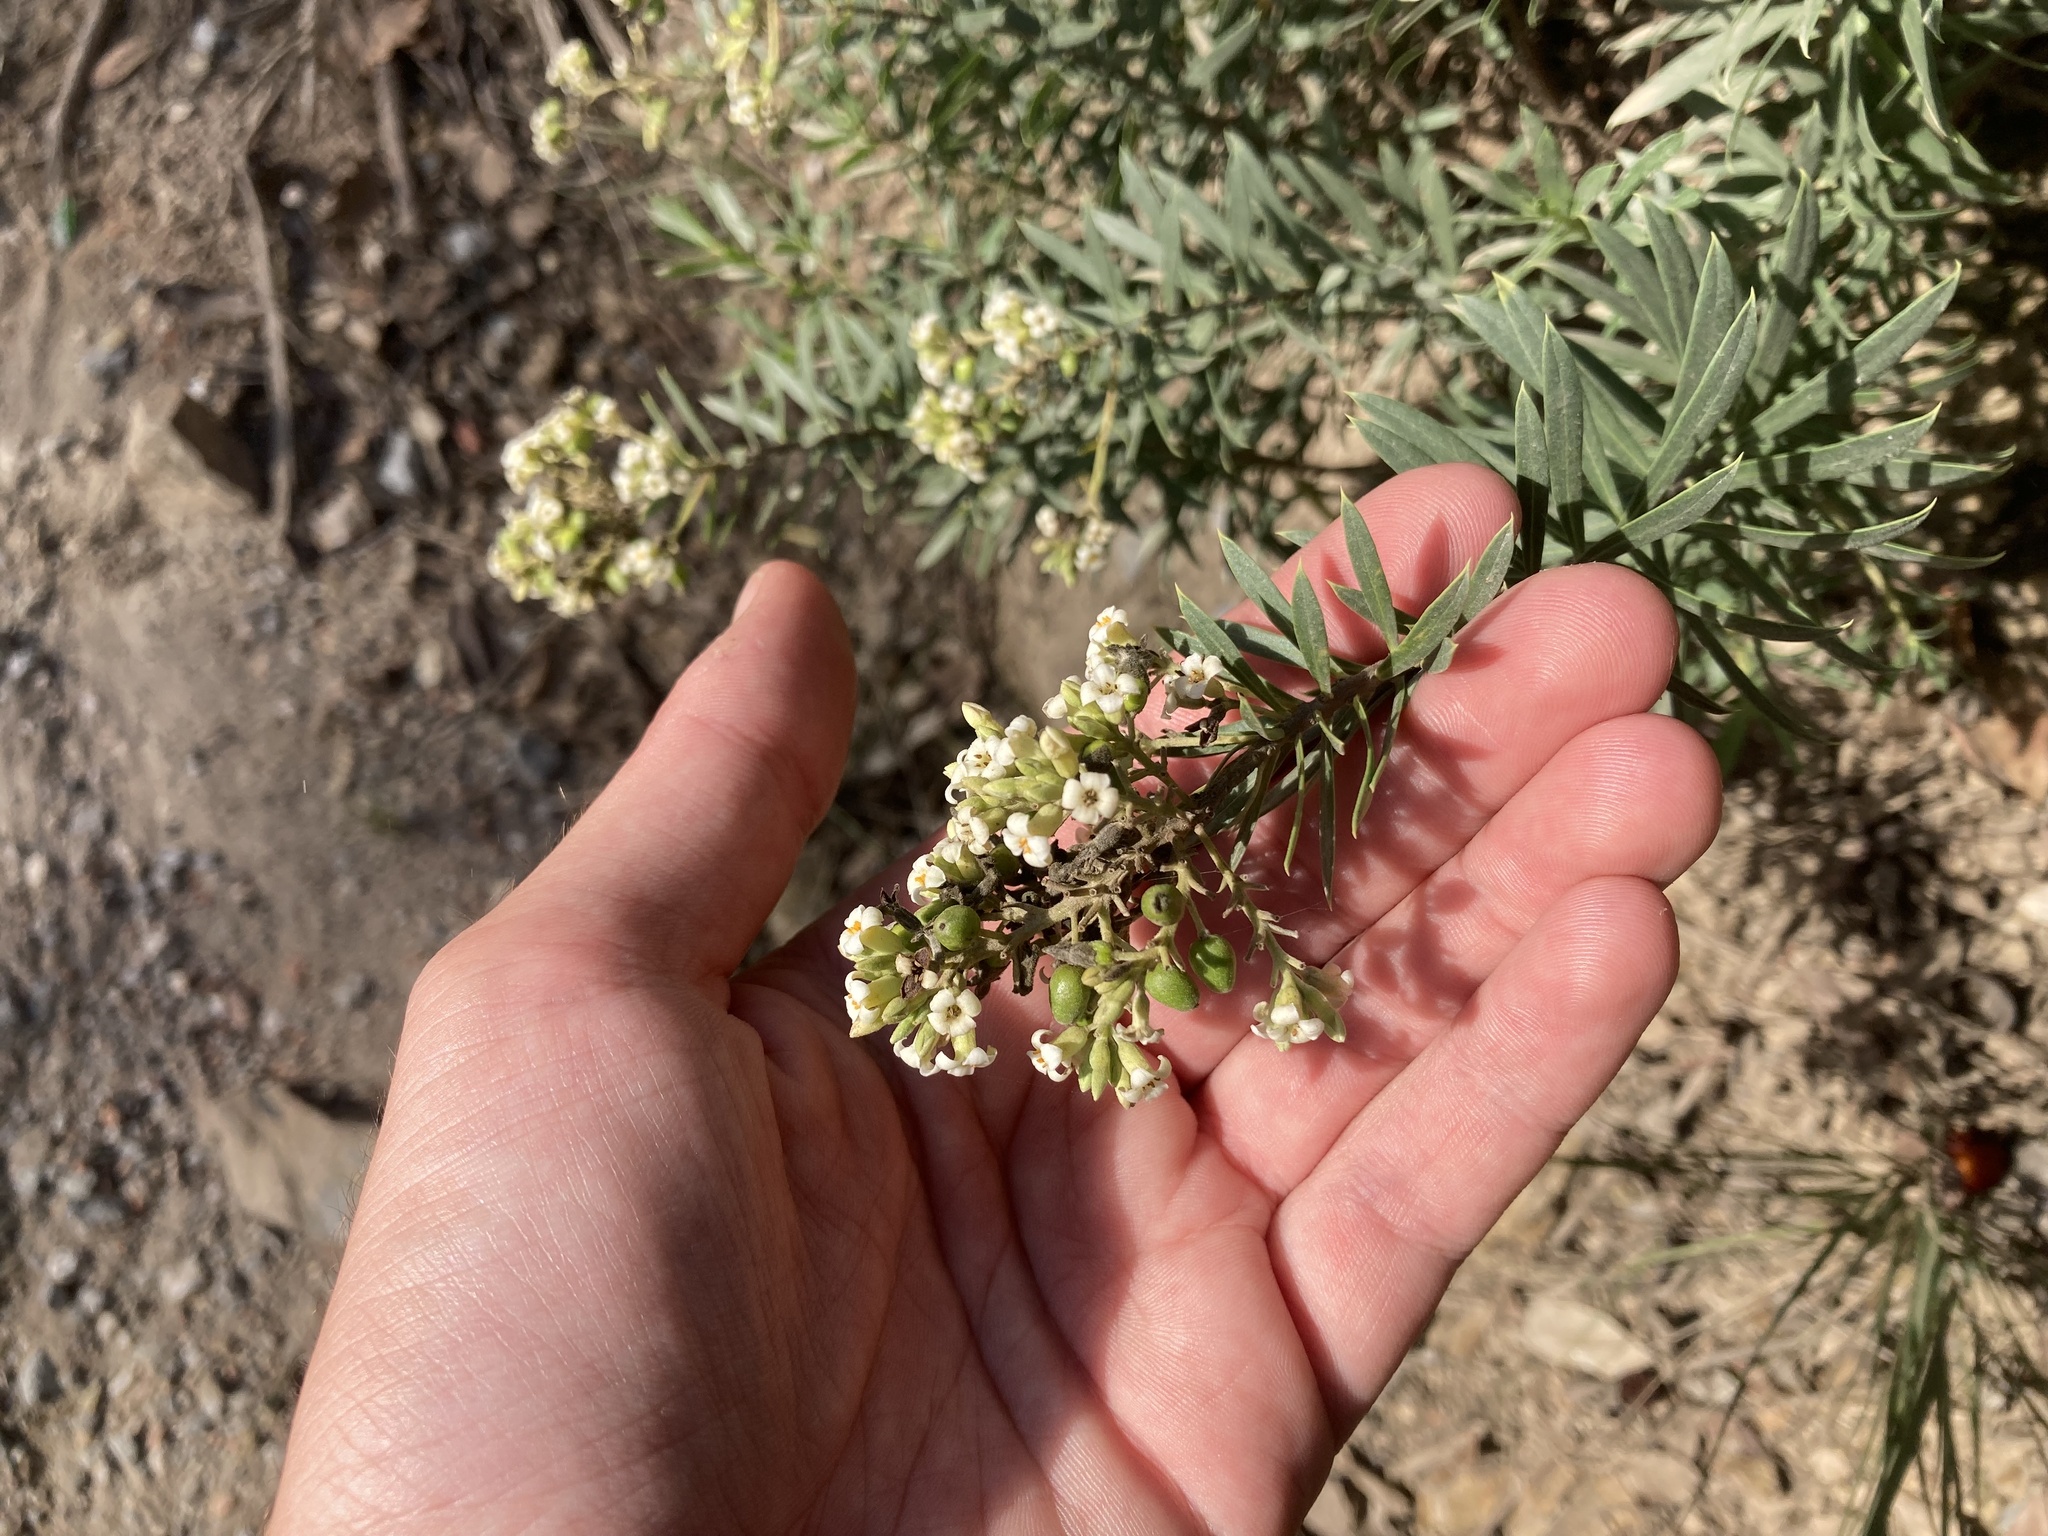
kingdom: Plantae
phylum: Tracheophyta
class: Magnoliopsida
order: Malvales
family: Thymelaeaceae
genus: Daphne
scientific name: Daphne gnidium
